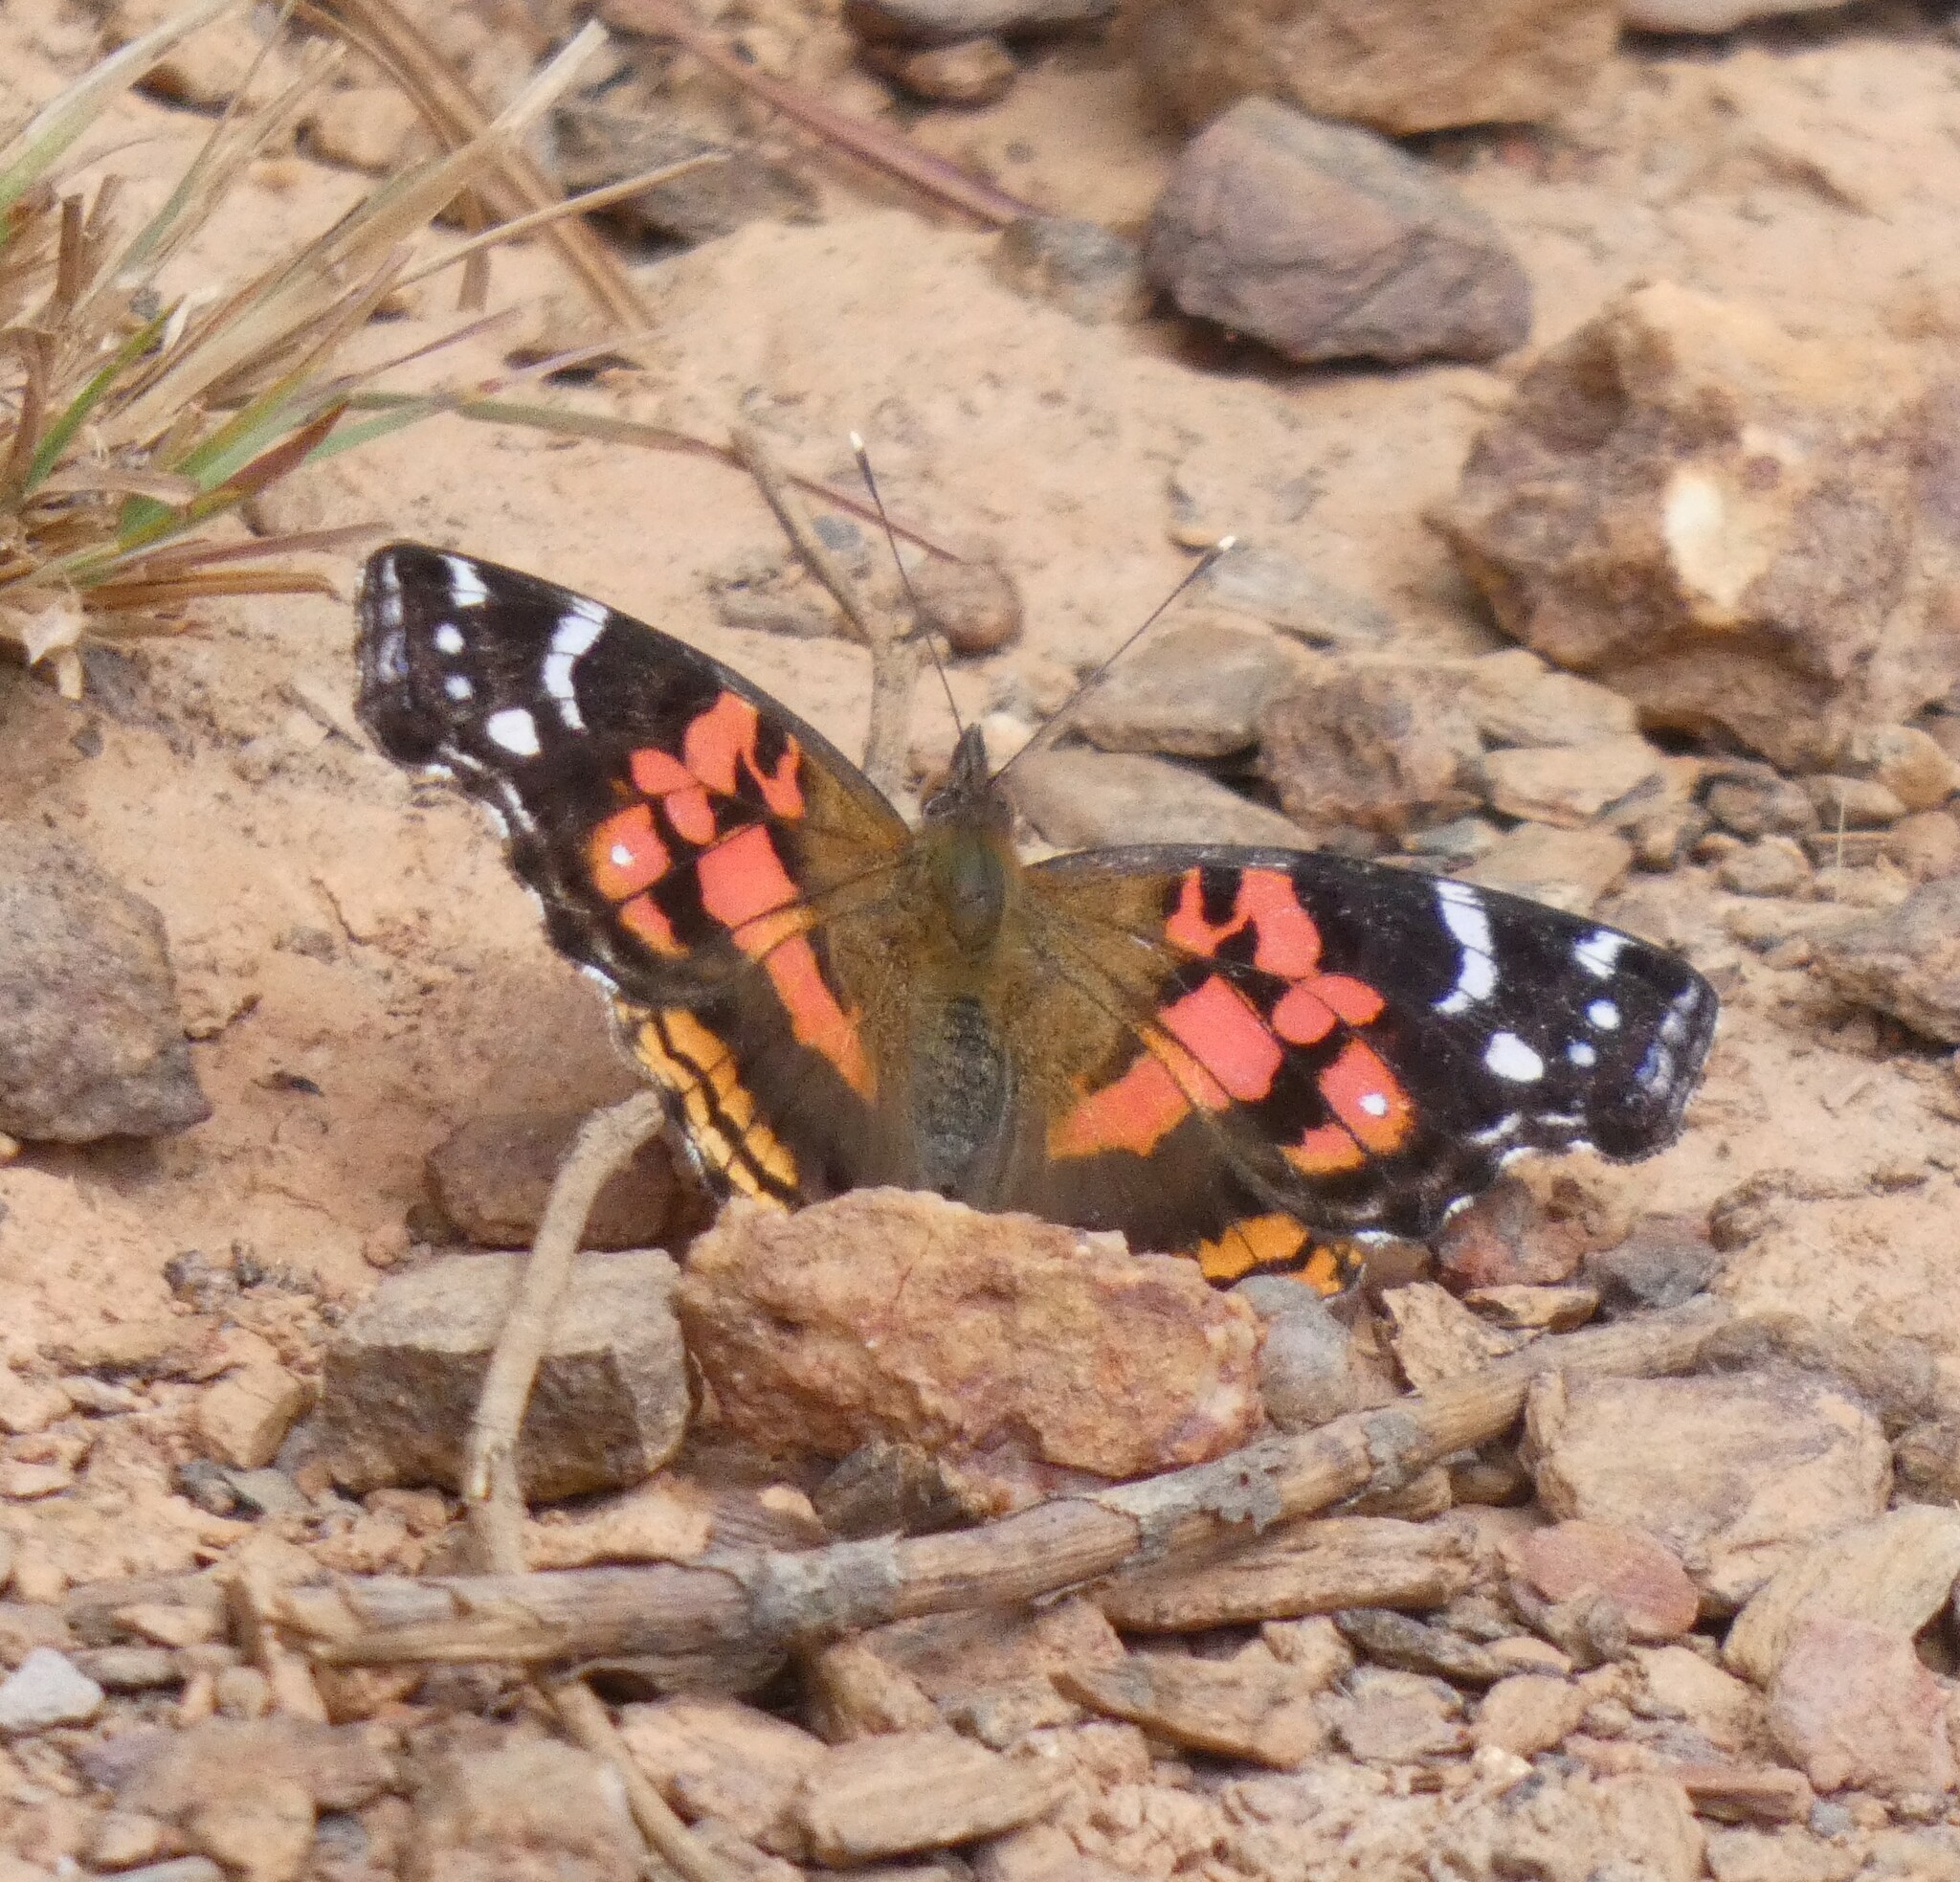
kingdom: Animalia
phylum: Arthropoda
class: Insecta
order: Lepidoptera
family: Nymphalidae
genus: Vanessa
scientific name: Vanessa myrinna
